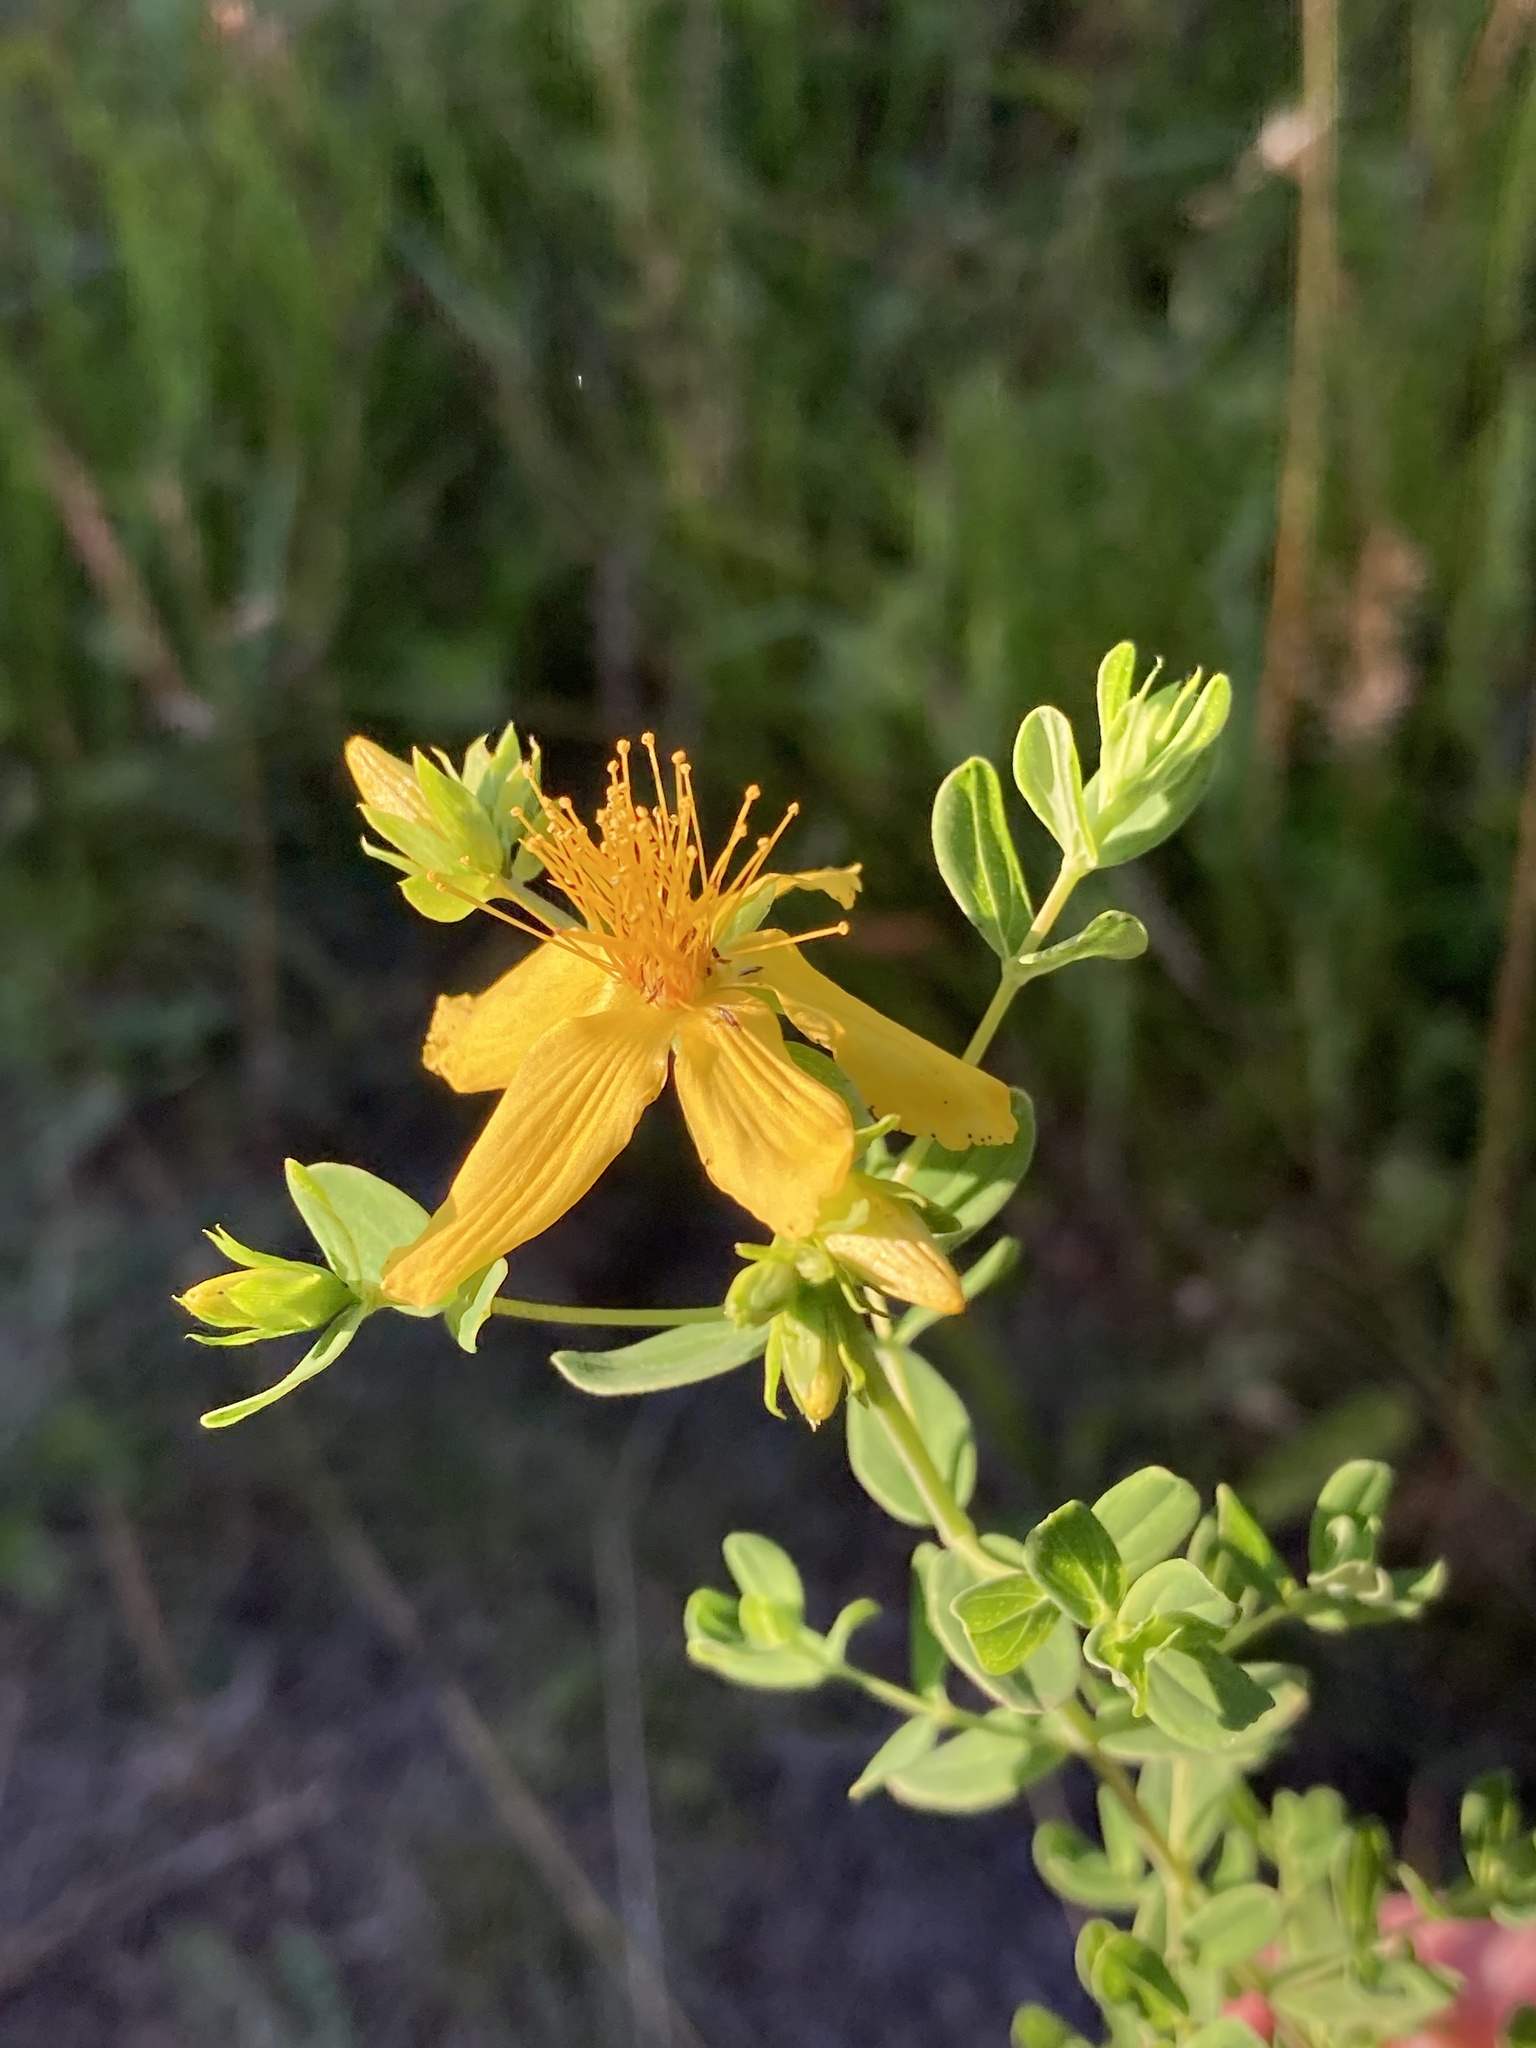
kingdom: Plantae
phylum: Tracheophyta
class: Magnoliopsida
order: Malpighiales
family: Hypericaceae
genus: Hypericum
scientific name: Hypericum perforatum
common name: Common st. johnswort
